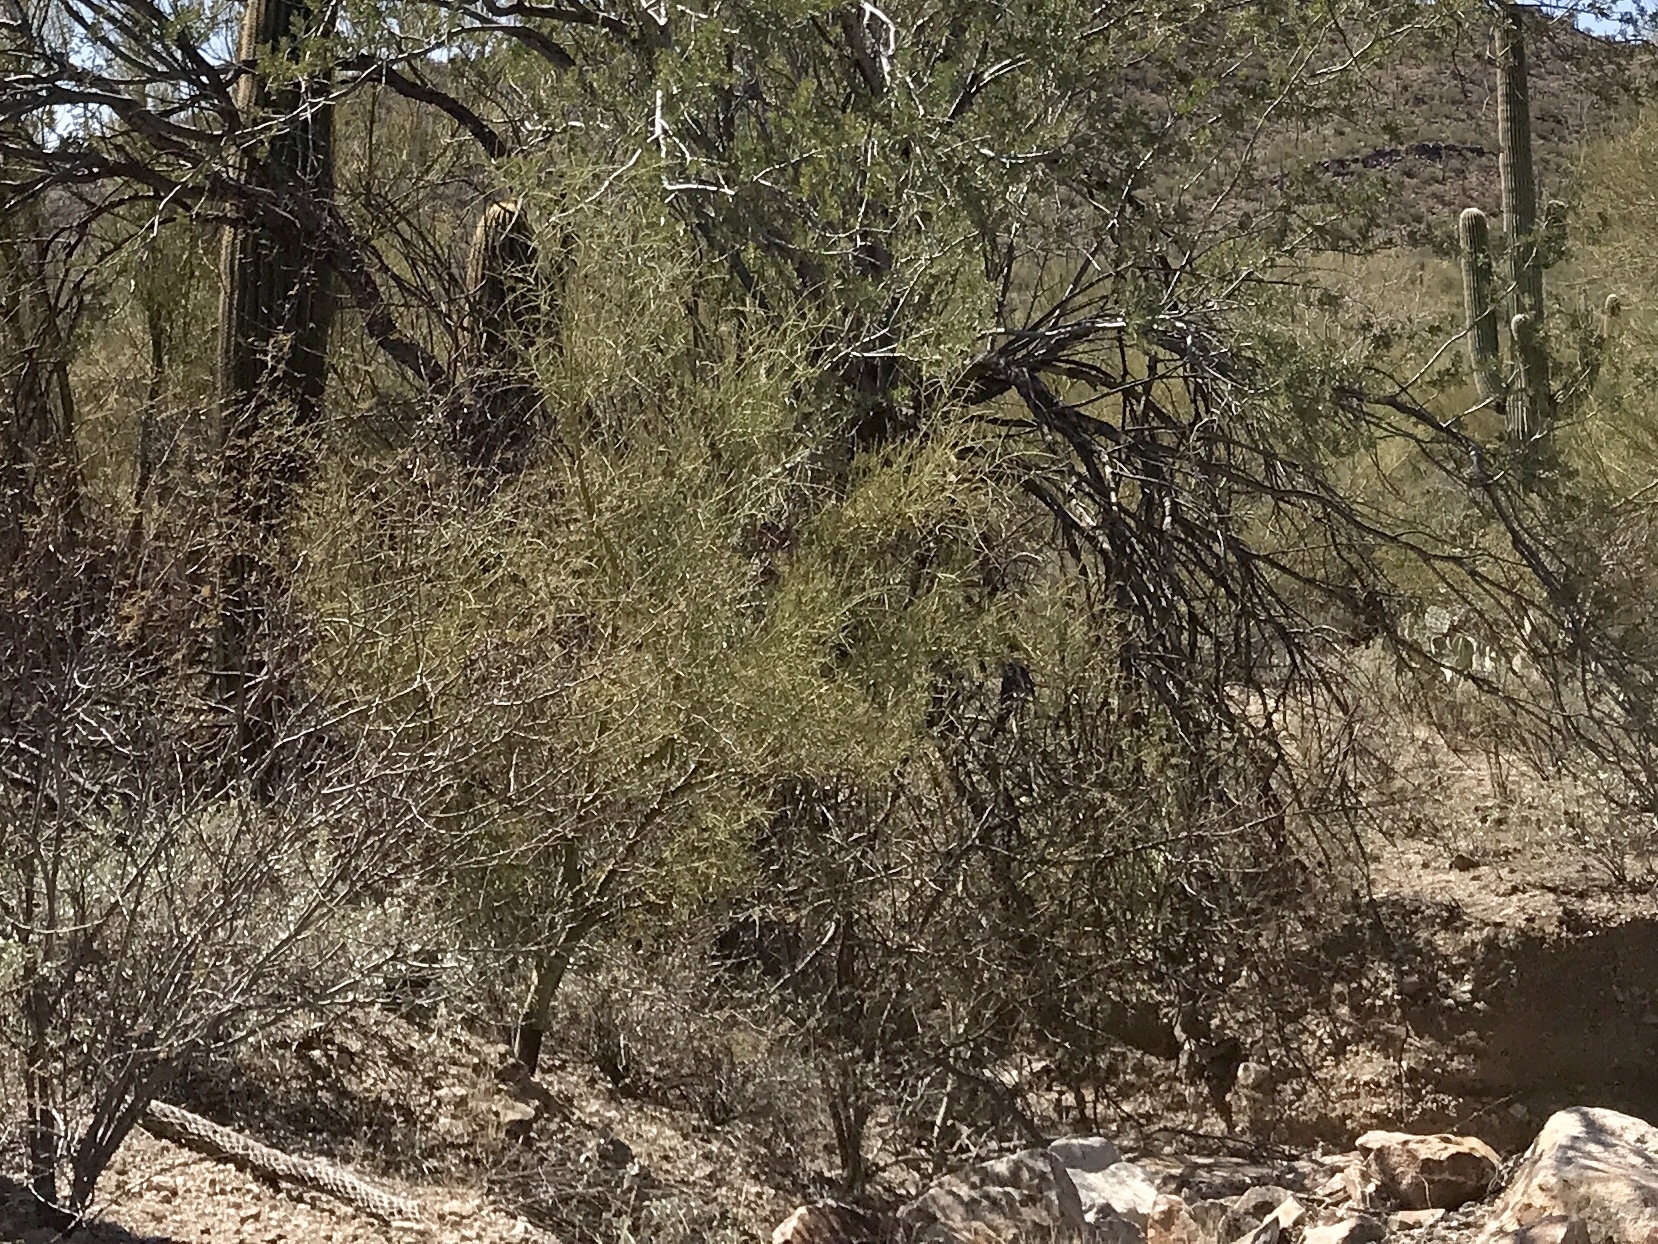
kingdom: Plantae
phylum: Tracheophyta
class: Magnoliopsida
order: Zygophyllales
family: Zygophyllaceae
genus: Larrea
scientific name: Larrea tridentata
